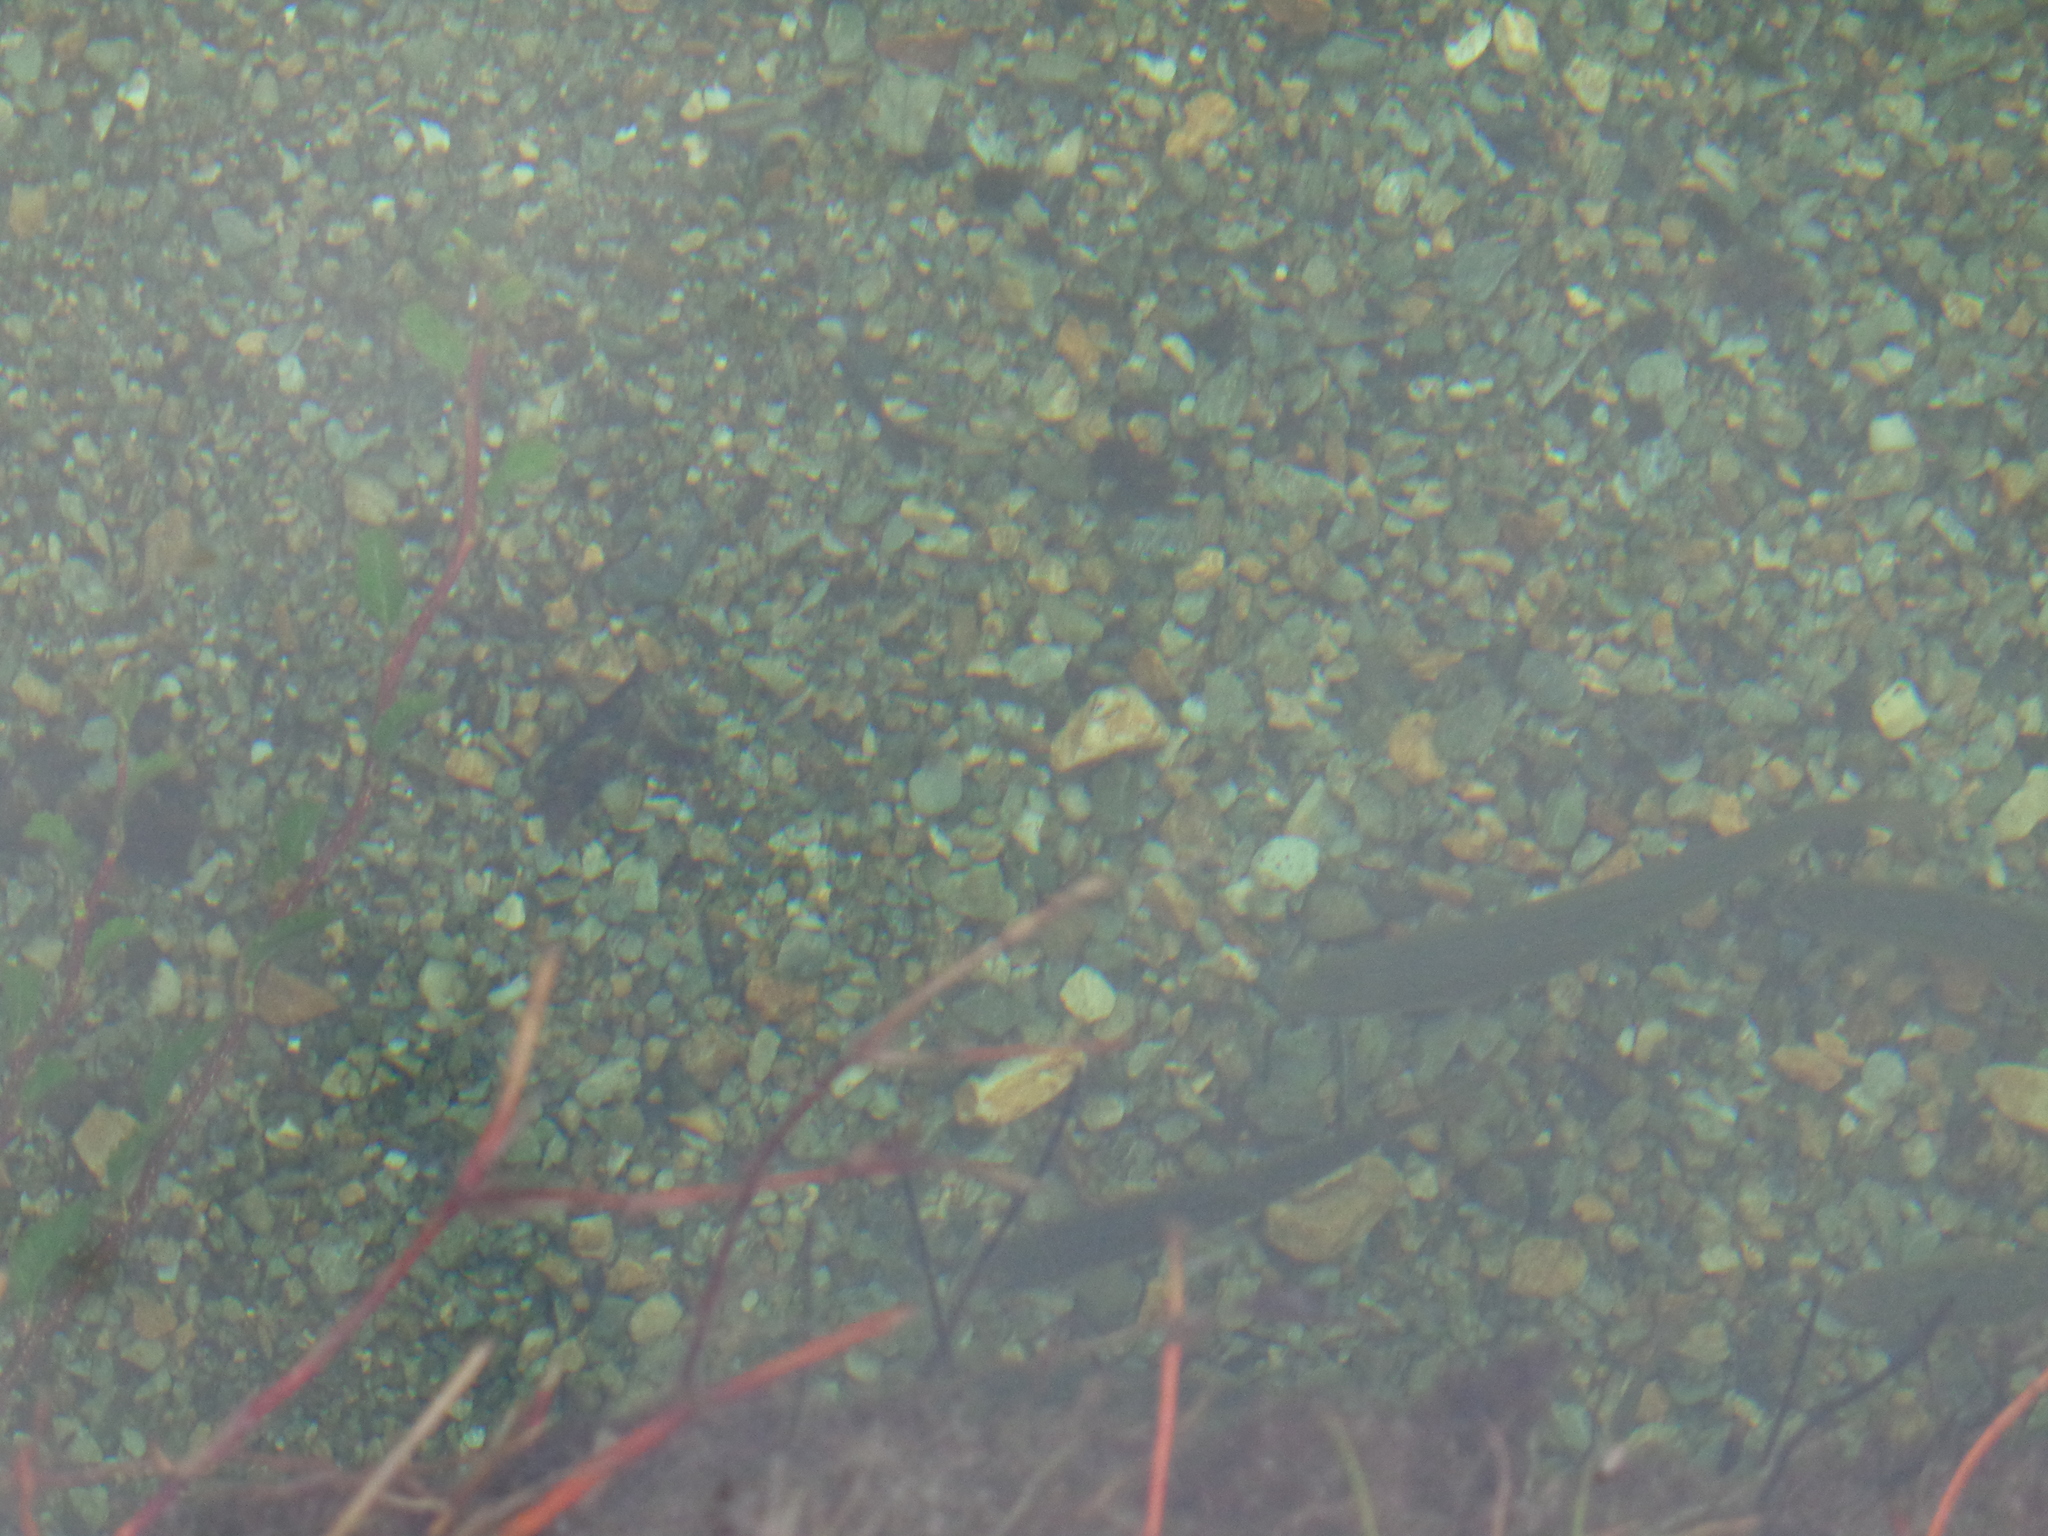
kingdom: Animalia
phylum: Chordata
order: Salmoniformes
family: Salmonidae
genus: Salvelinus
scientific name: Salvelinus fontinalis
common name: Brook trout
